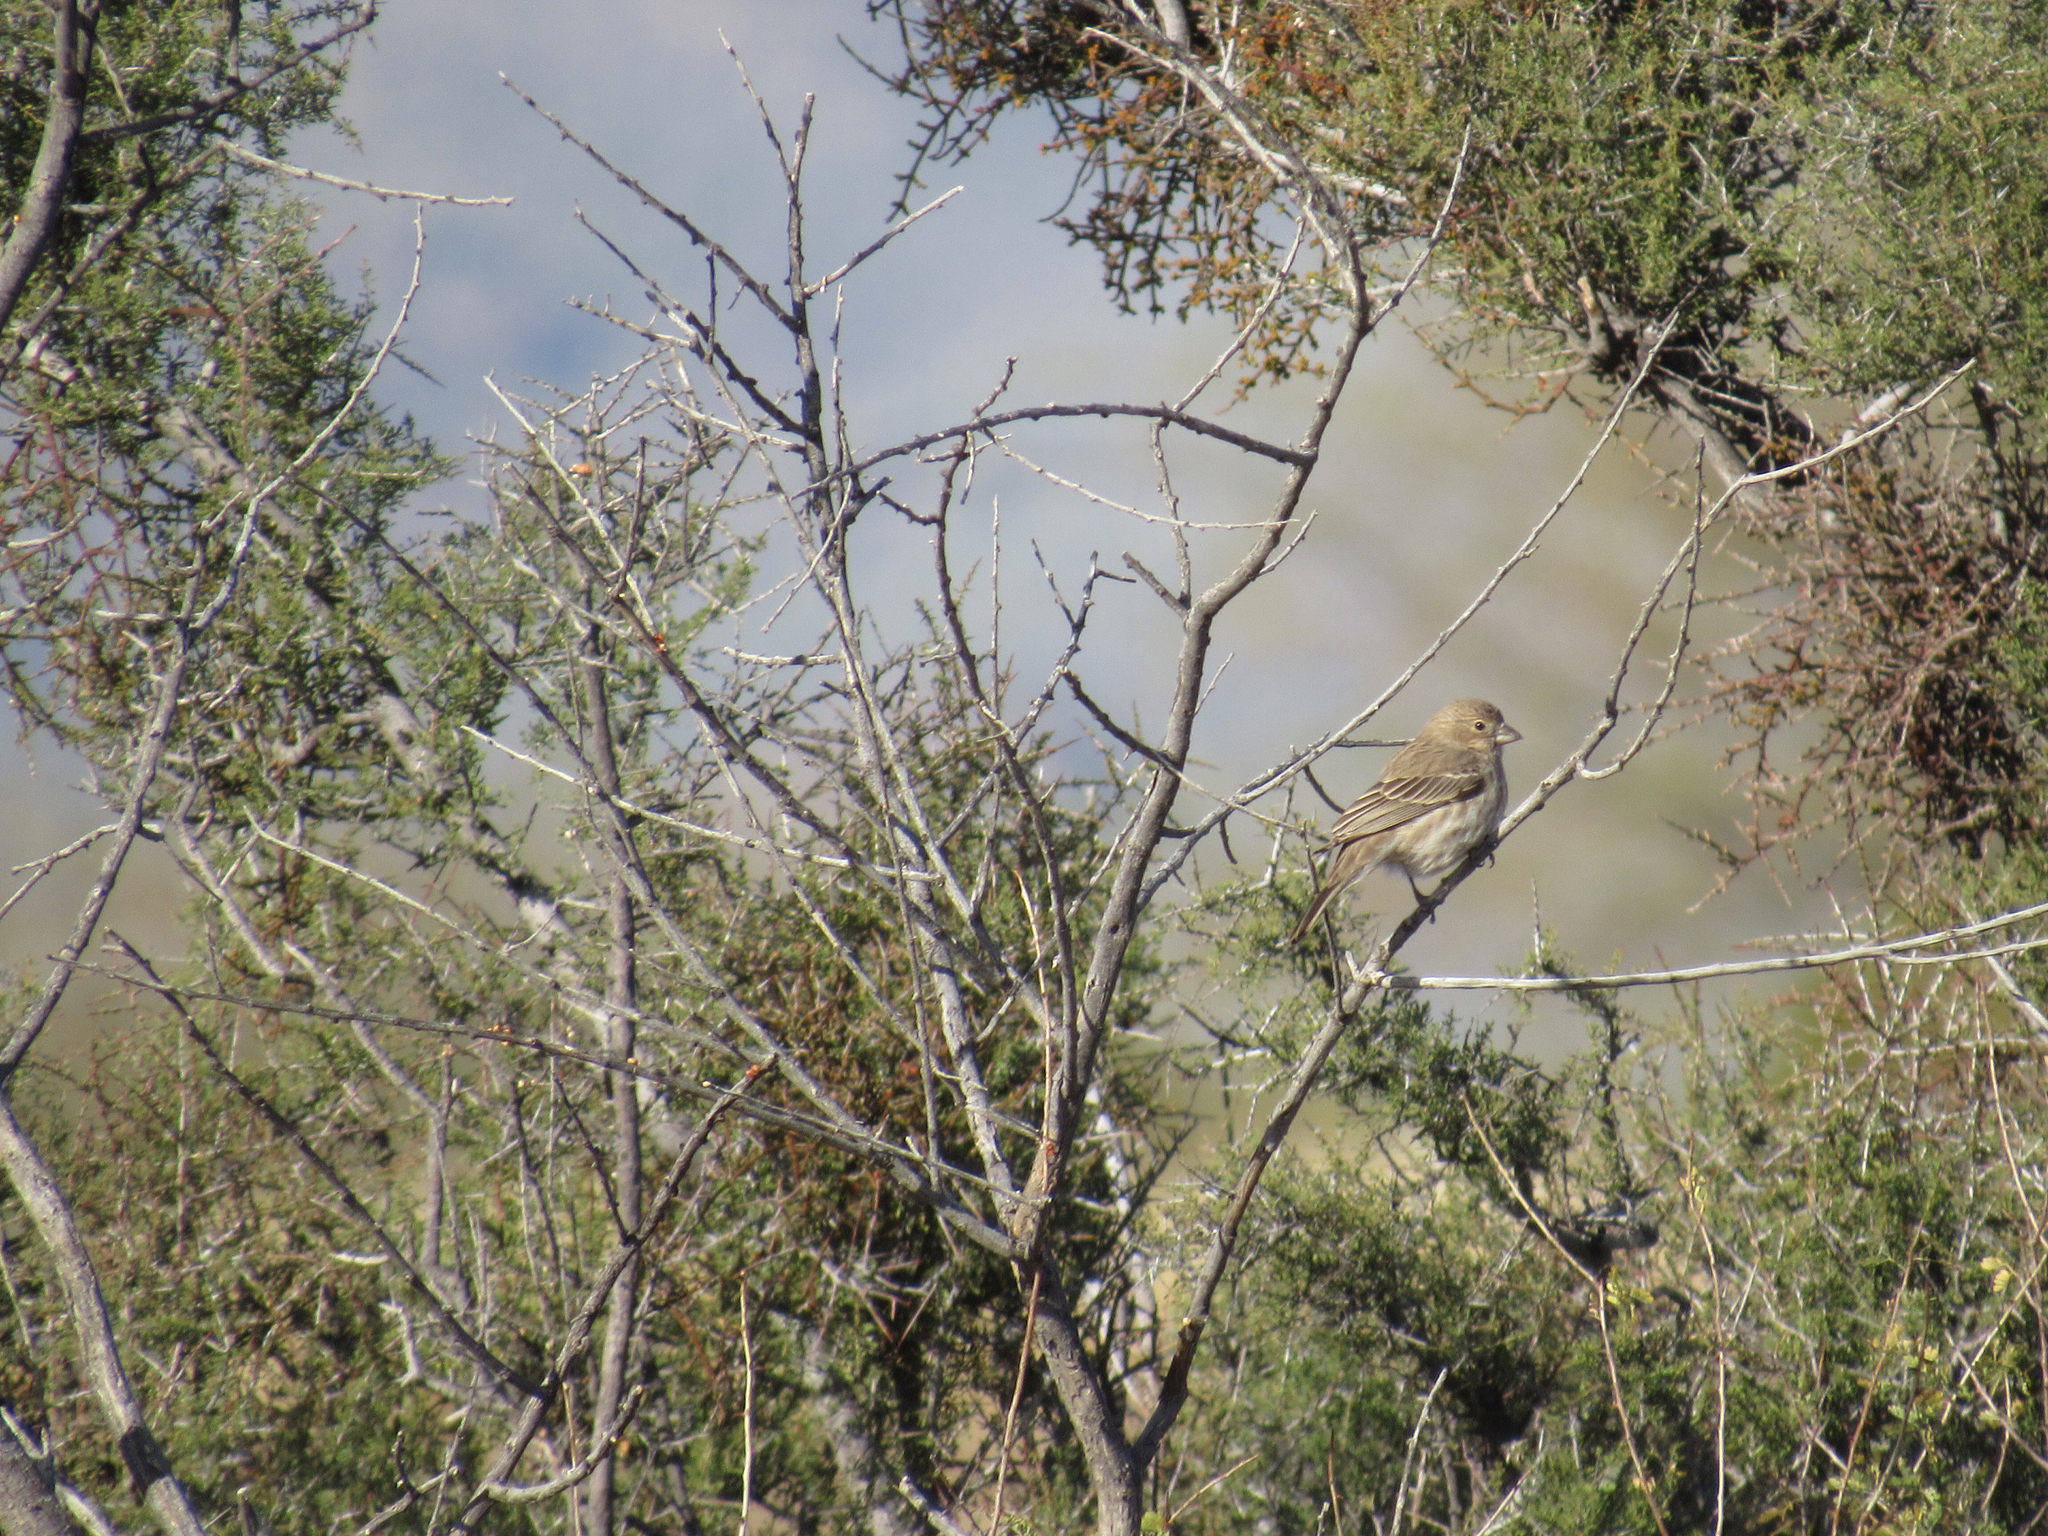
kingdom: Animalia
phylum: Chordata
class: Aves
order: Passeriformes
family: Fringillidae
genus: Haemorhous
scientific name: Haemorhous mexicanus
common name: House finch
